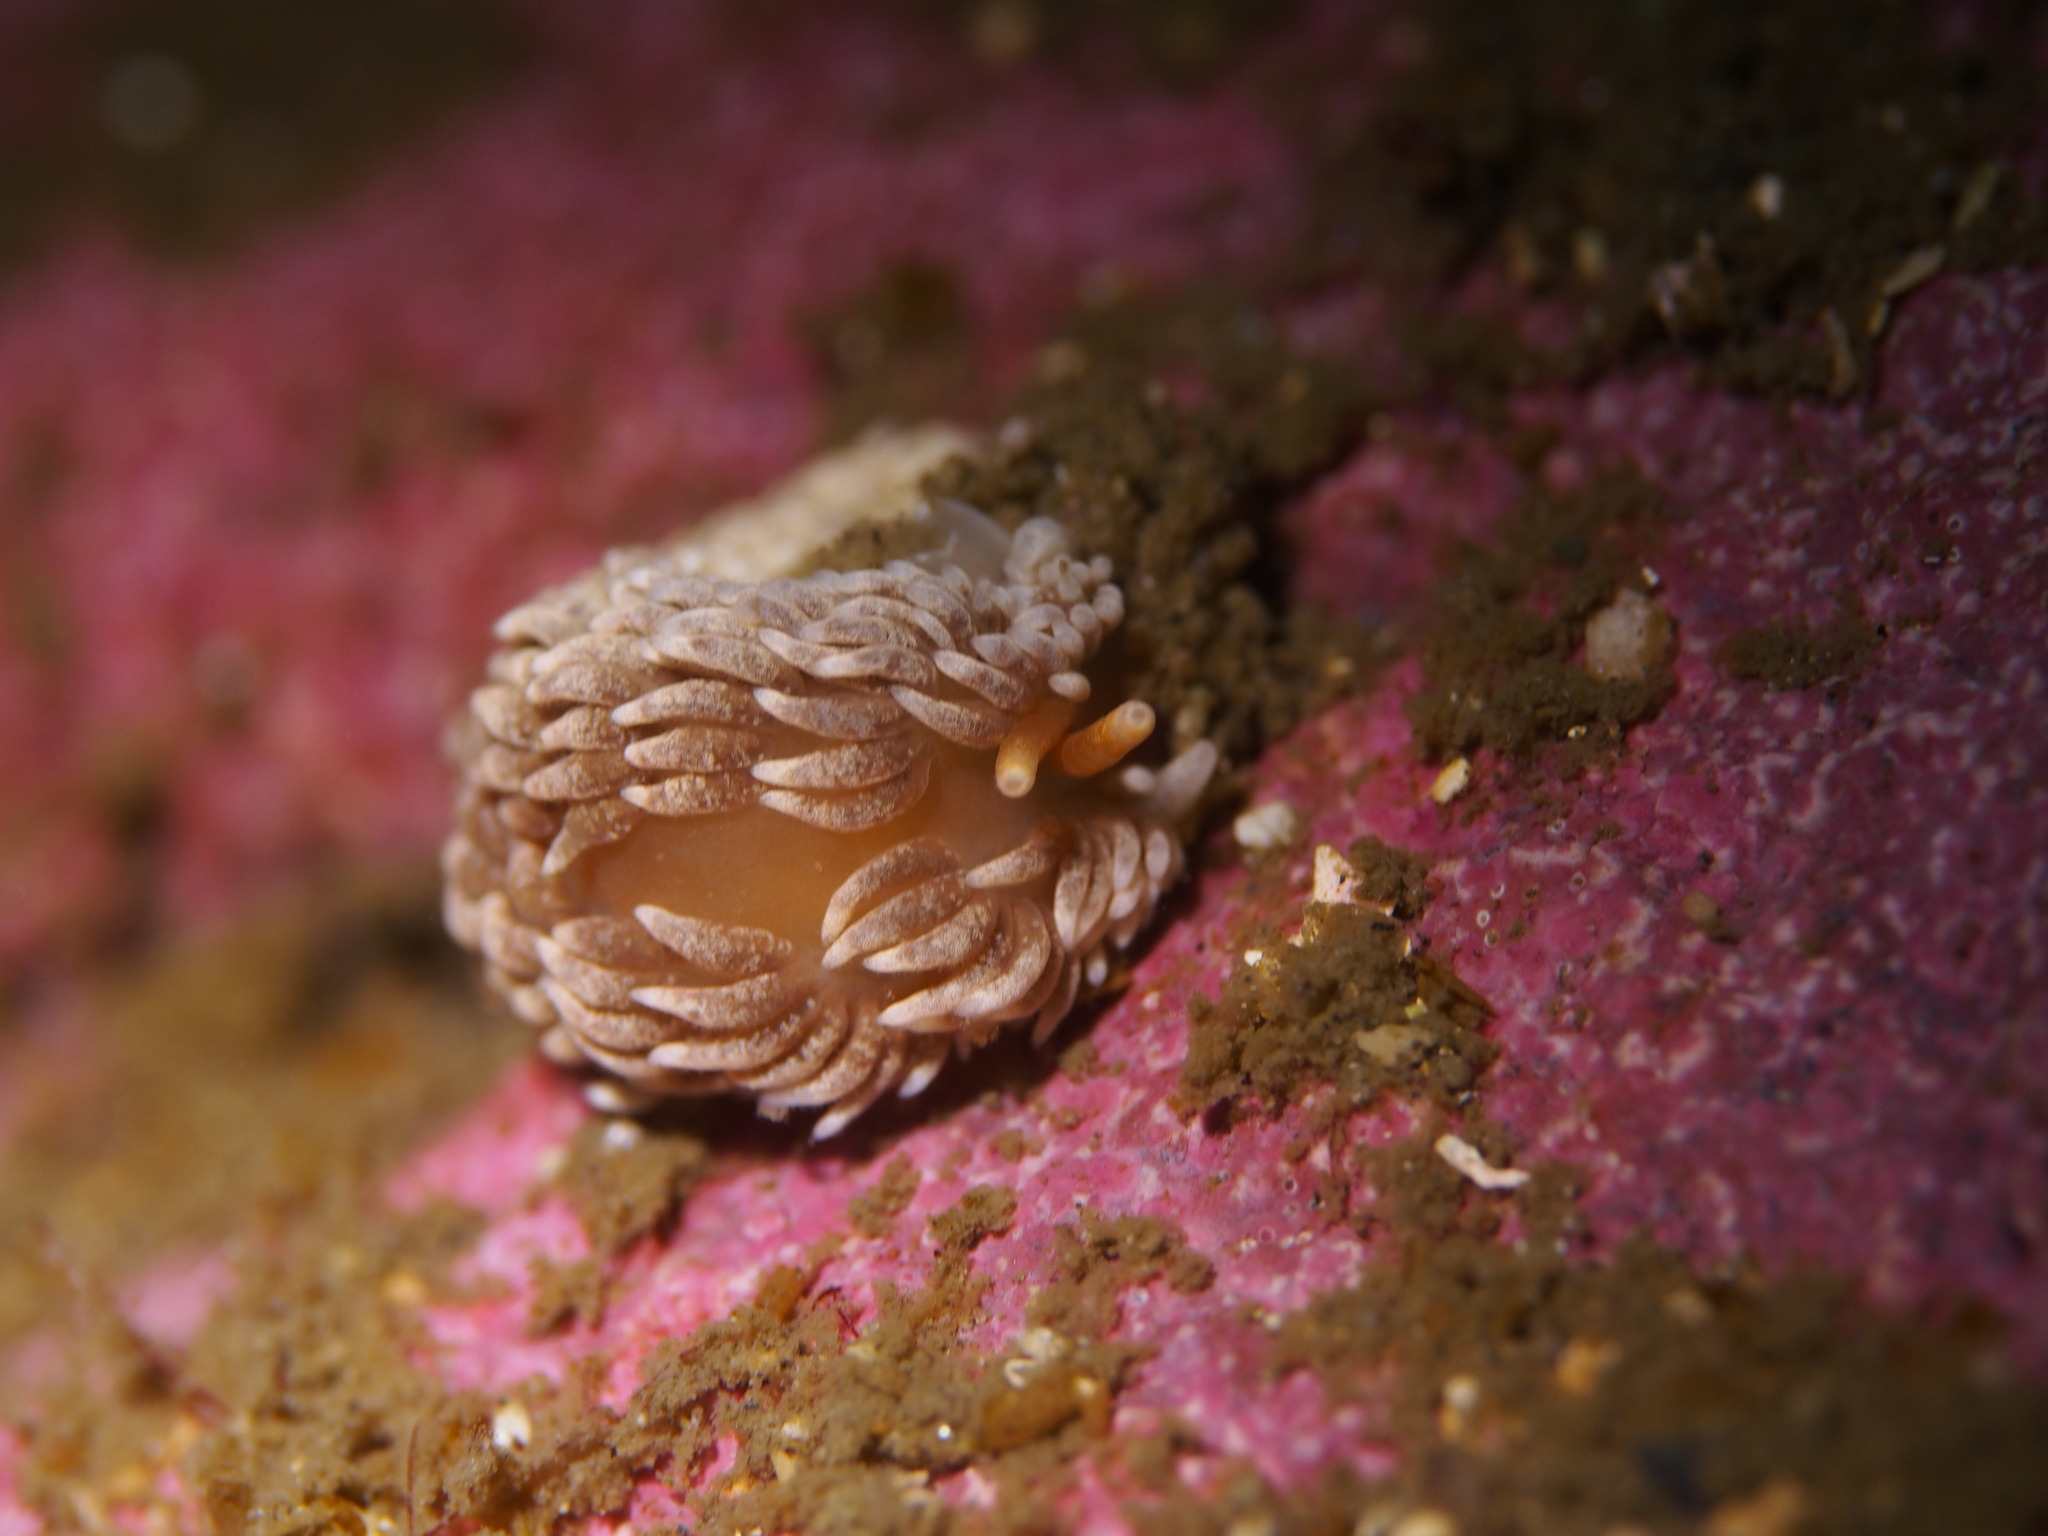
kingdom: Animalia
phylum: Mollusca
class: Gastropoda
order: Nudibranchia
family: Aeolidiidae
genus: Aeolidiella
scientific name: Aeolidiella glauca
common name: Orange-brown aeolid
